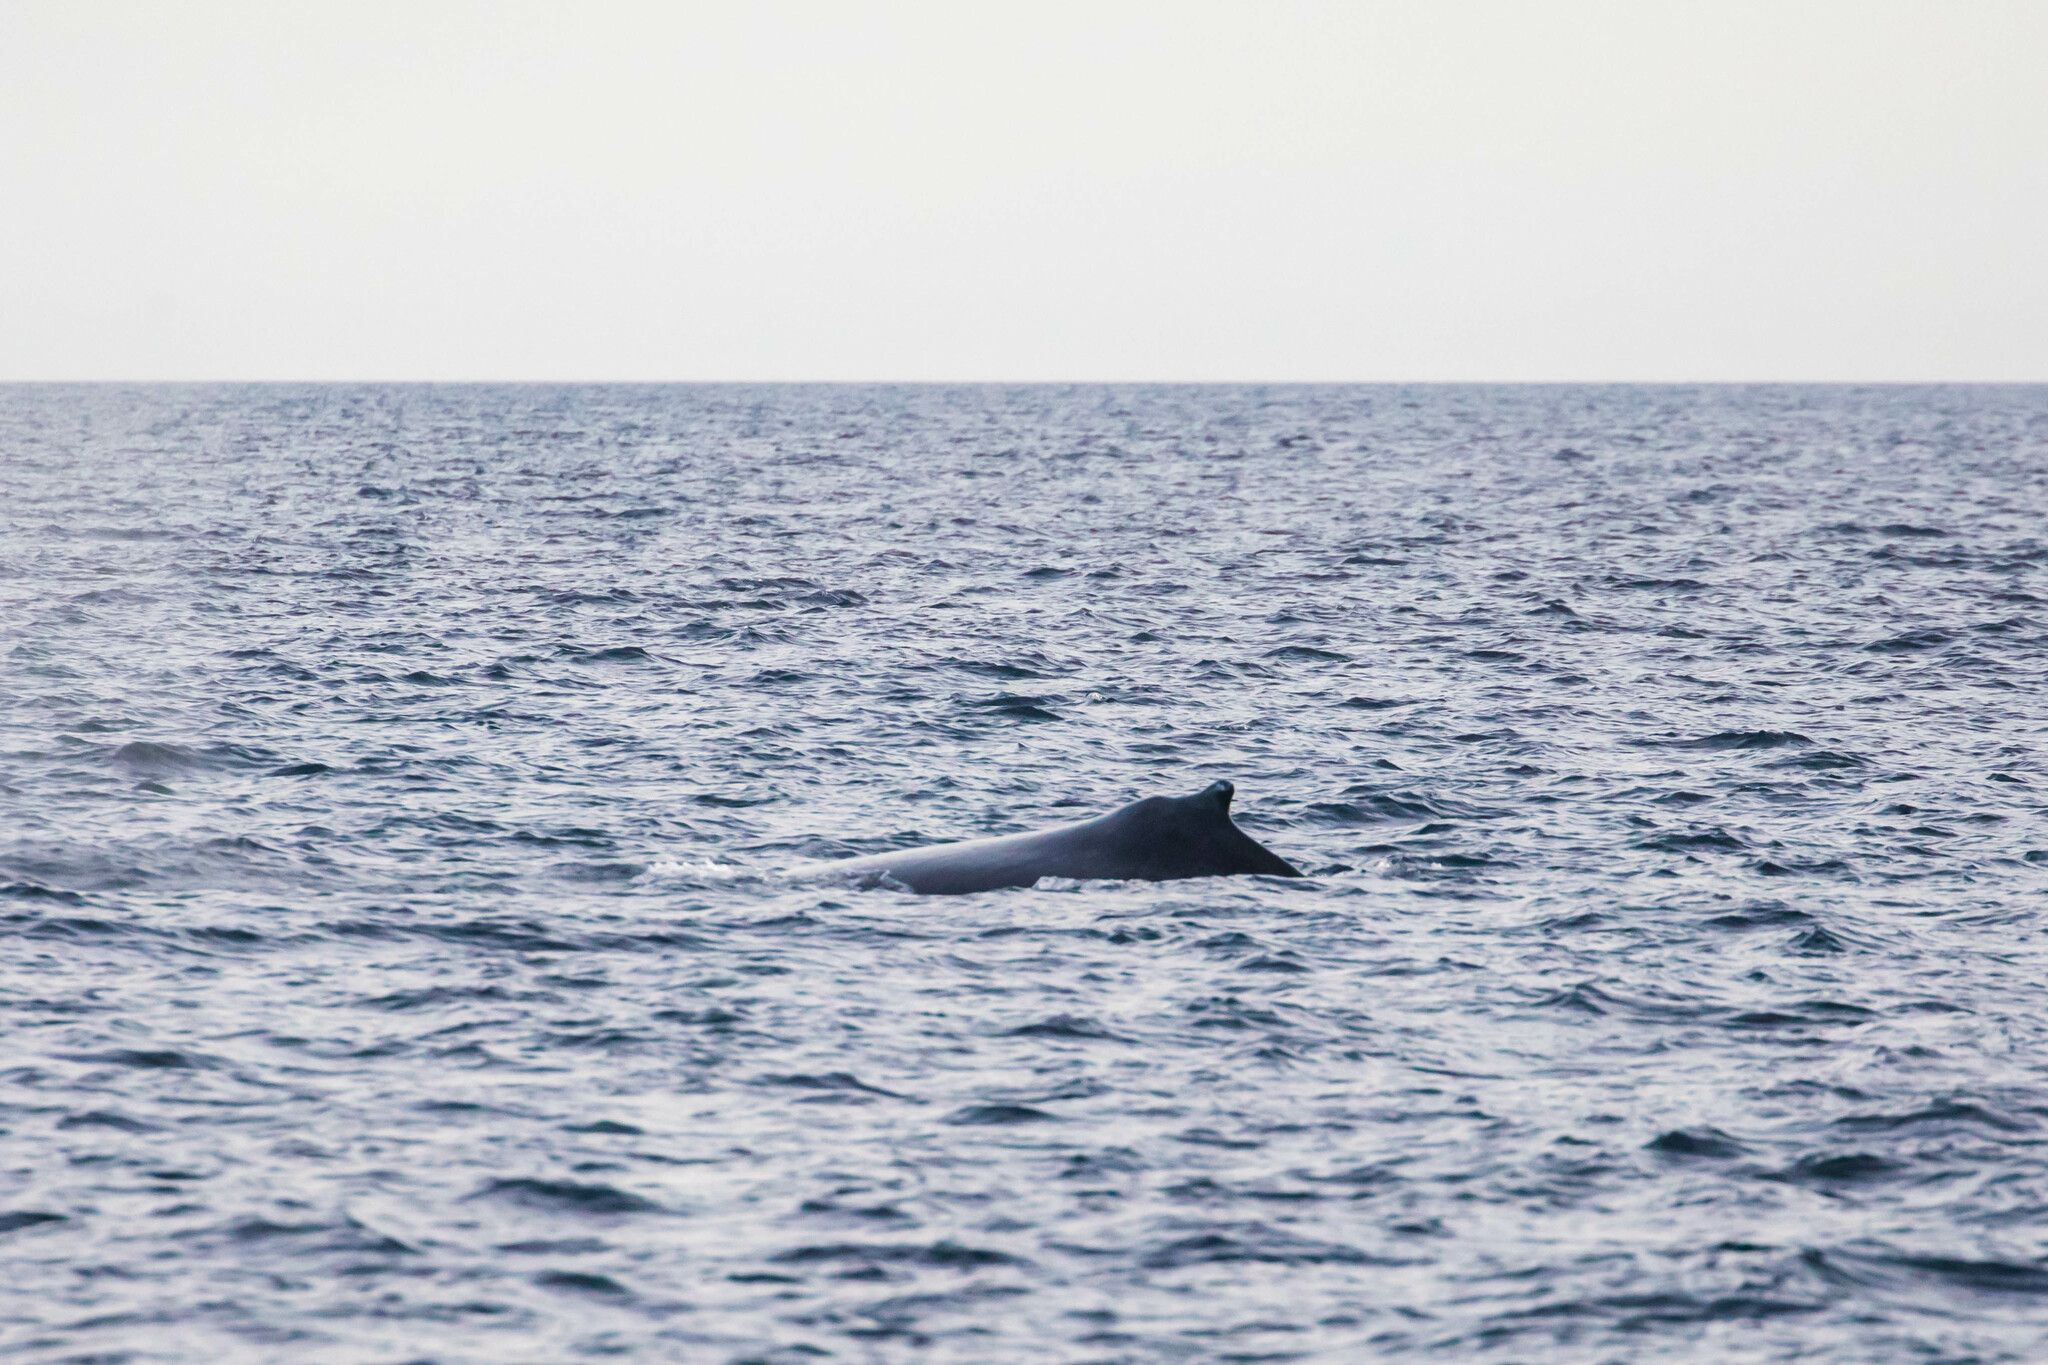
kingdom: Animalia
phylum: Chordata
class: Mammalia
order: Cetacea
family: Balaenopteridae
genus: Megaptera
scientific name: Megaptera novaeangliae
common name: Humpback whale
